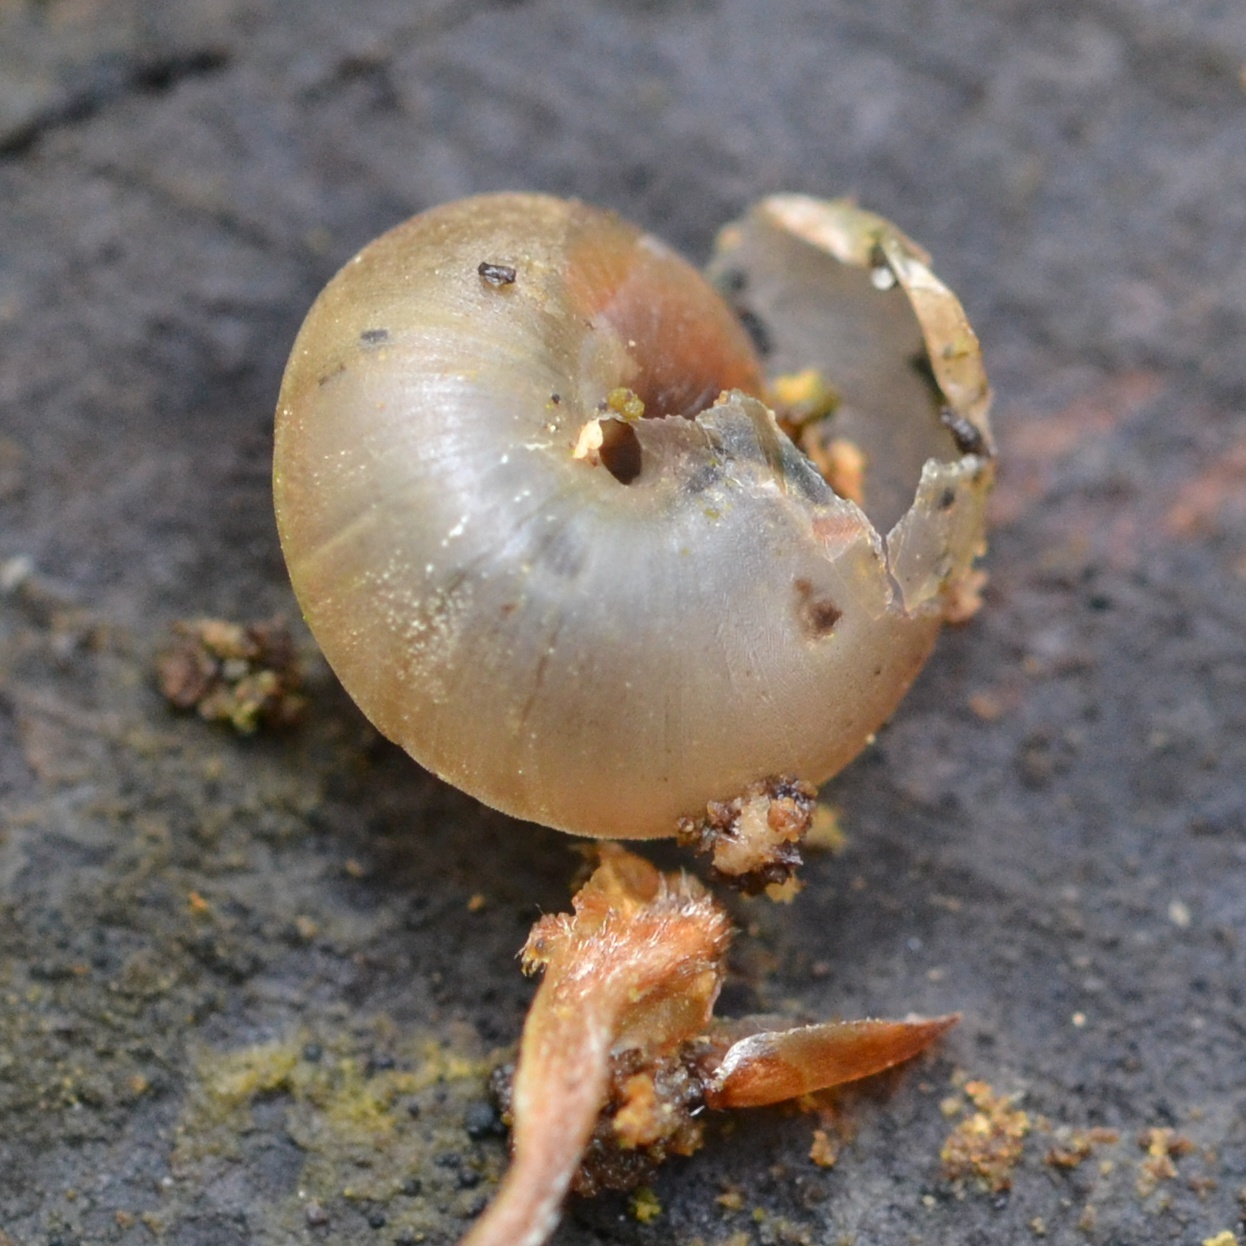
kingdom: Animalia
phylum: Mollusca
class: Gastropoda
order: Stylommatophora
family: Hygromiidae
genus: Monachoides
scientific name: Monachoides incarnatus
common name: Incarnate snail
